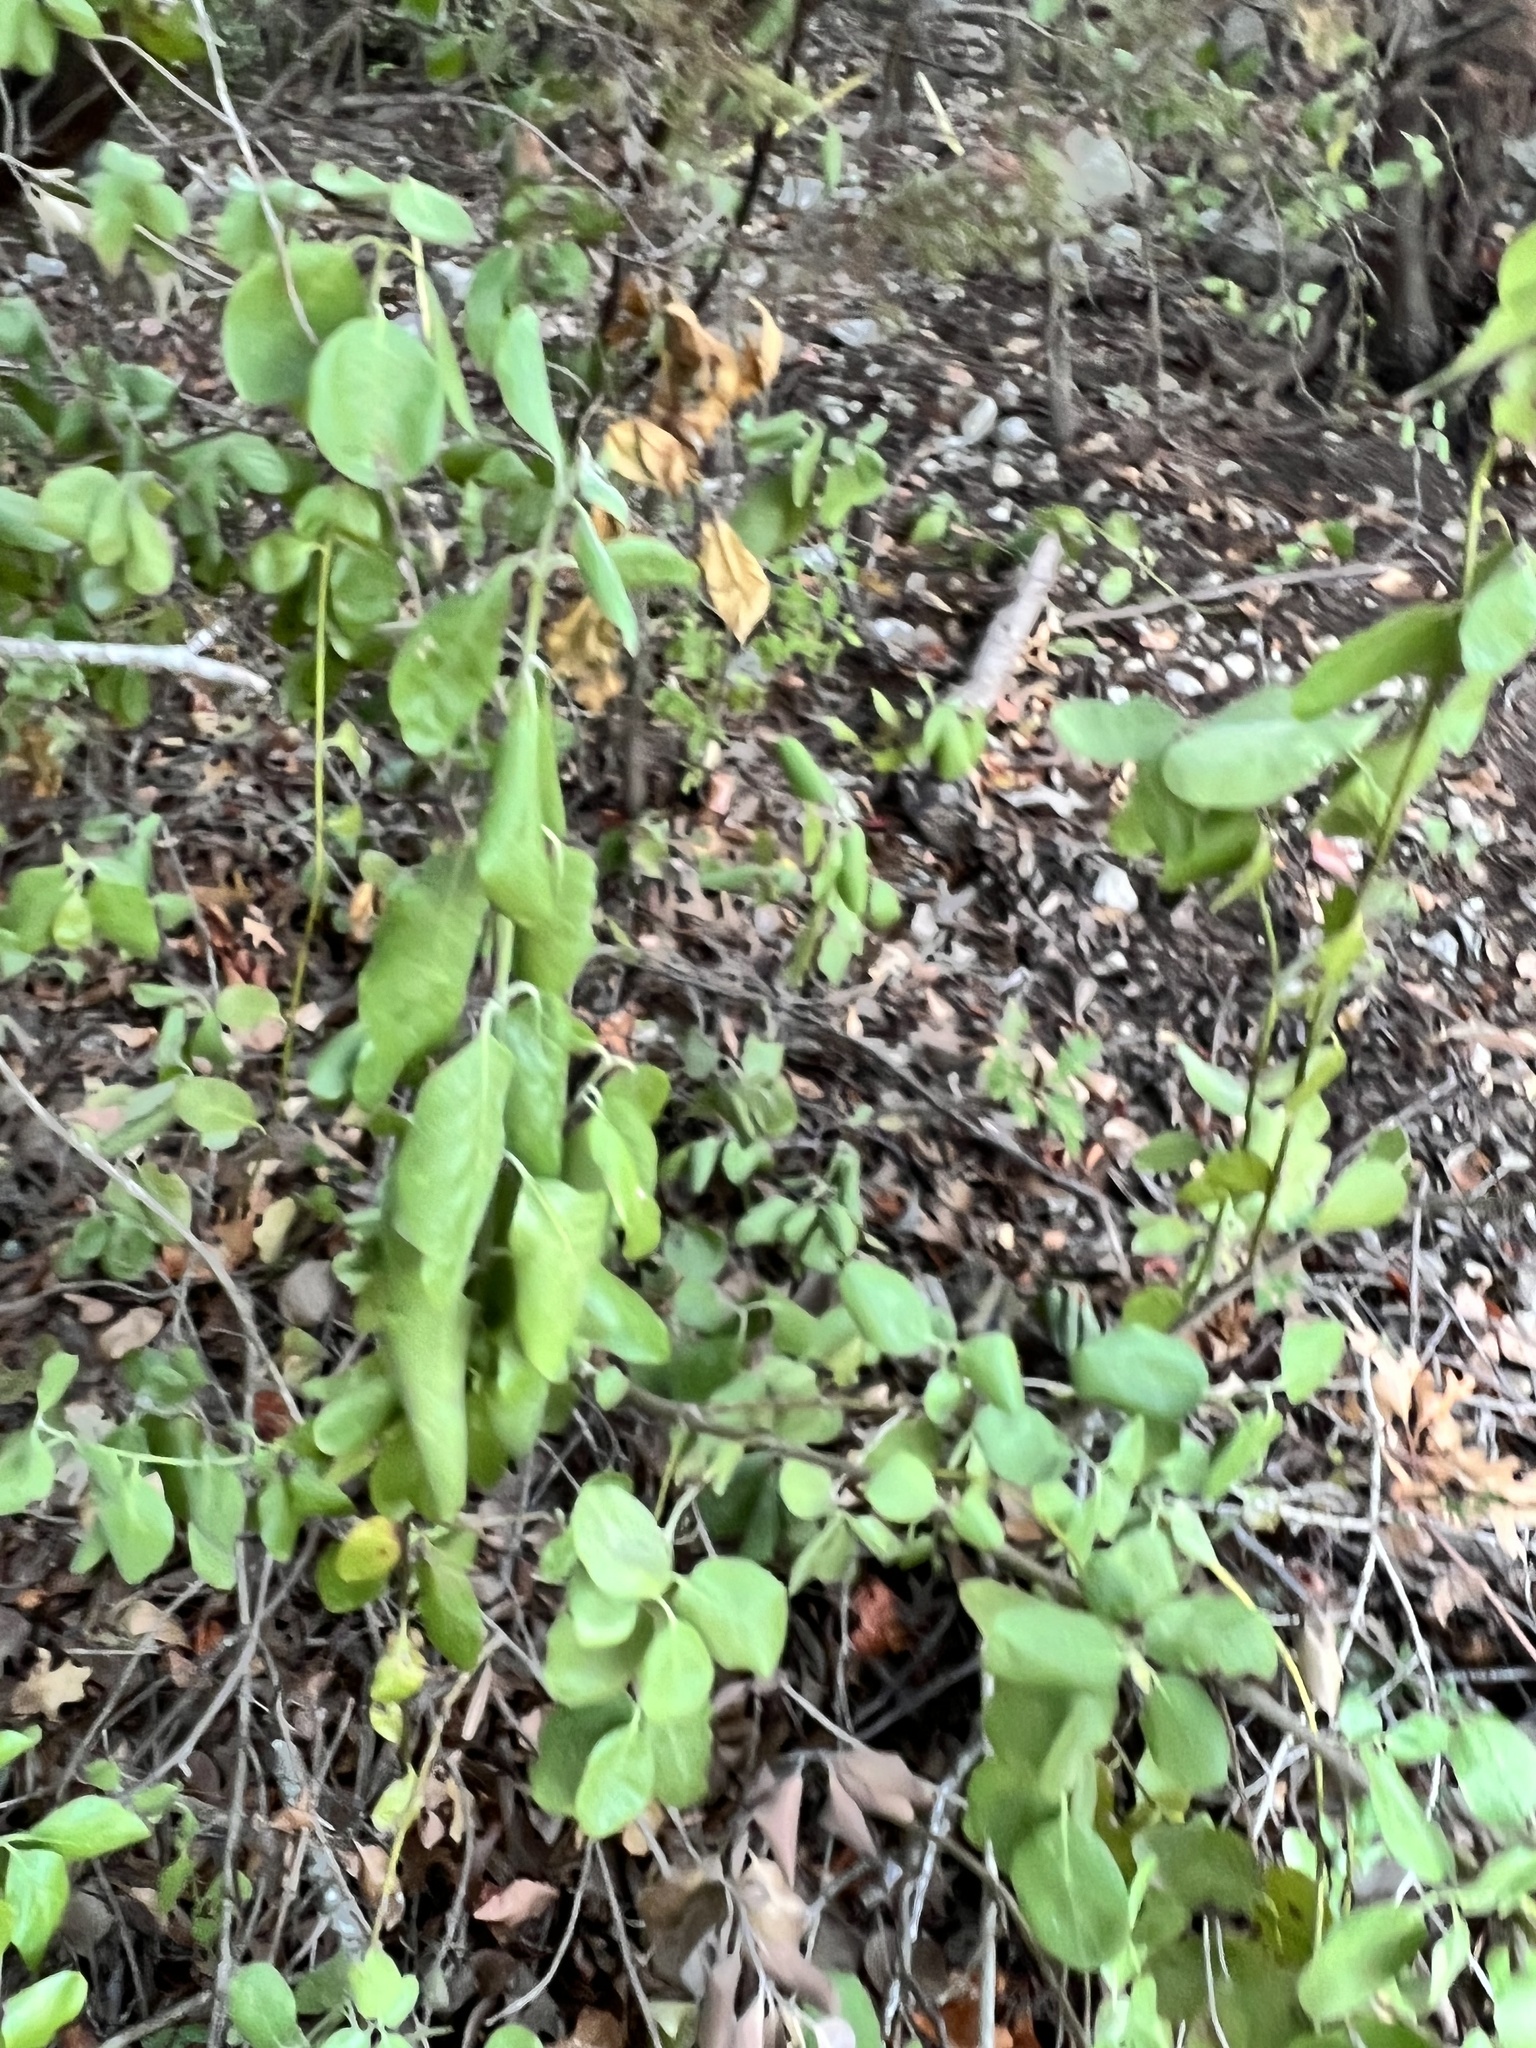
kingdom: Plantae
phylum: Tracheophyta
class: Magnoliopsida
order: Garryales
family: Garryaceae
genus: Garrya
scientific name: Garrya lindheimeri
